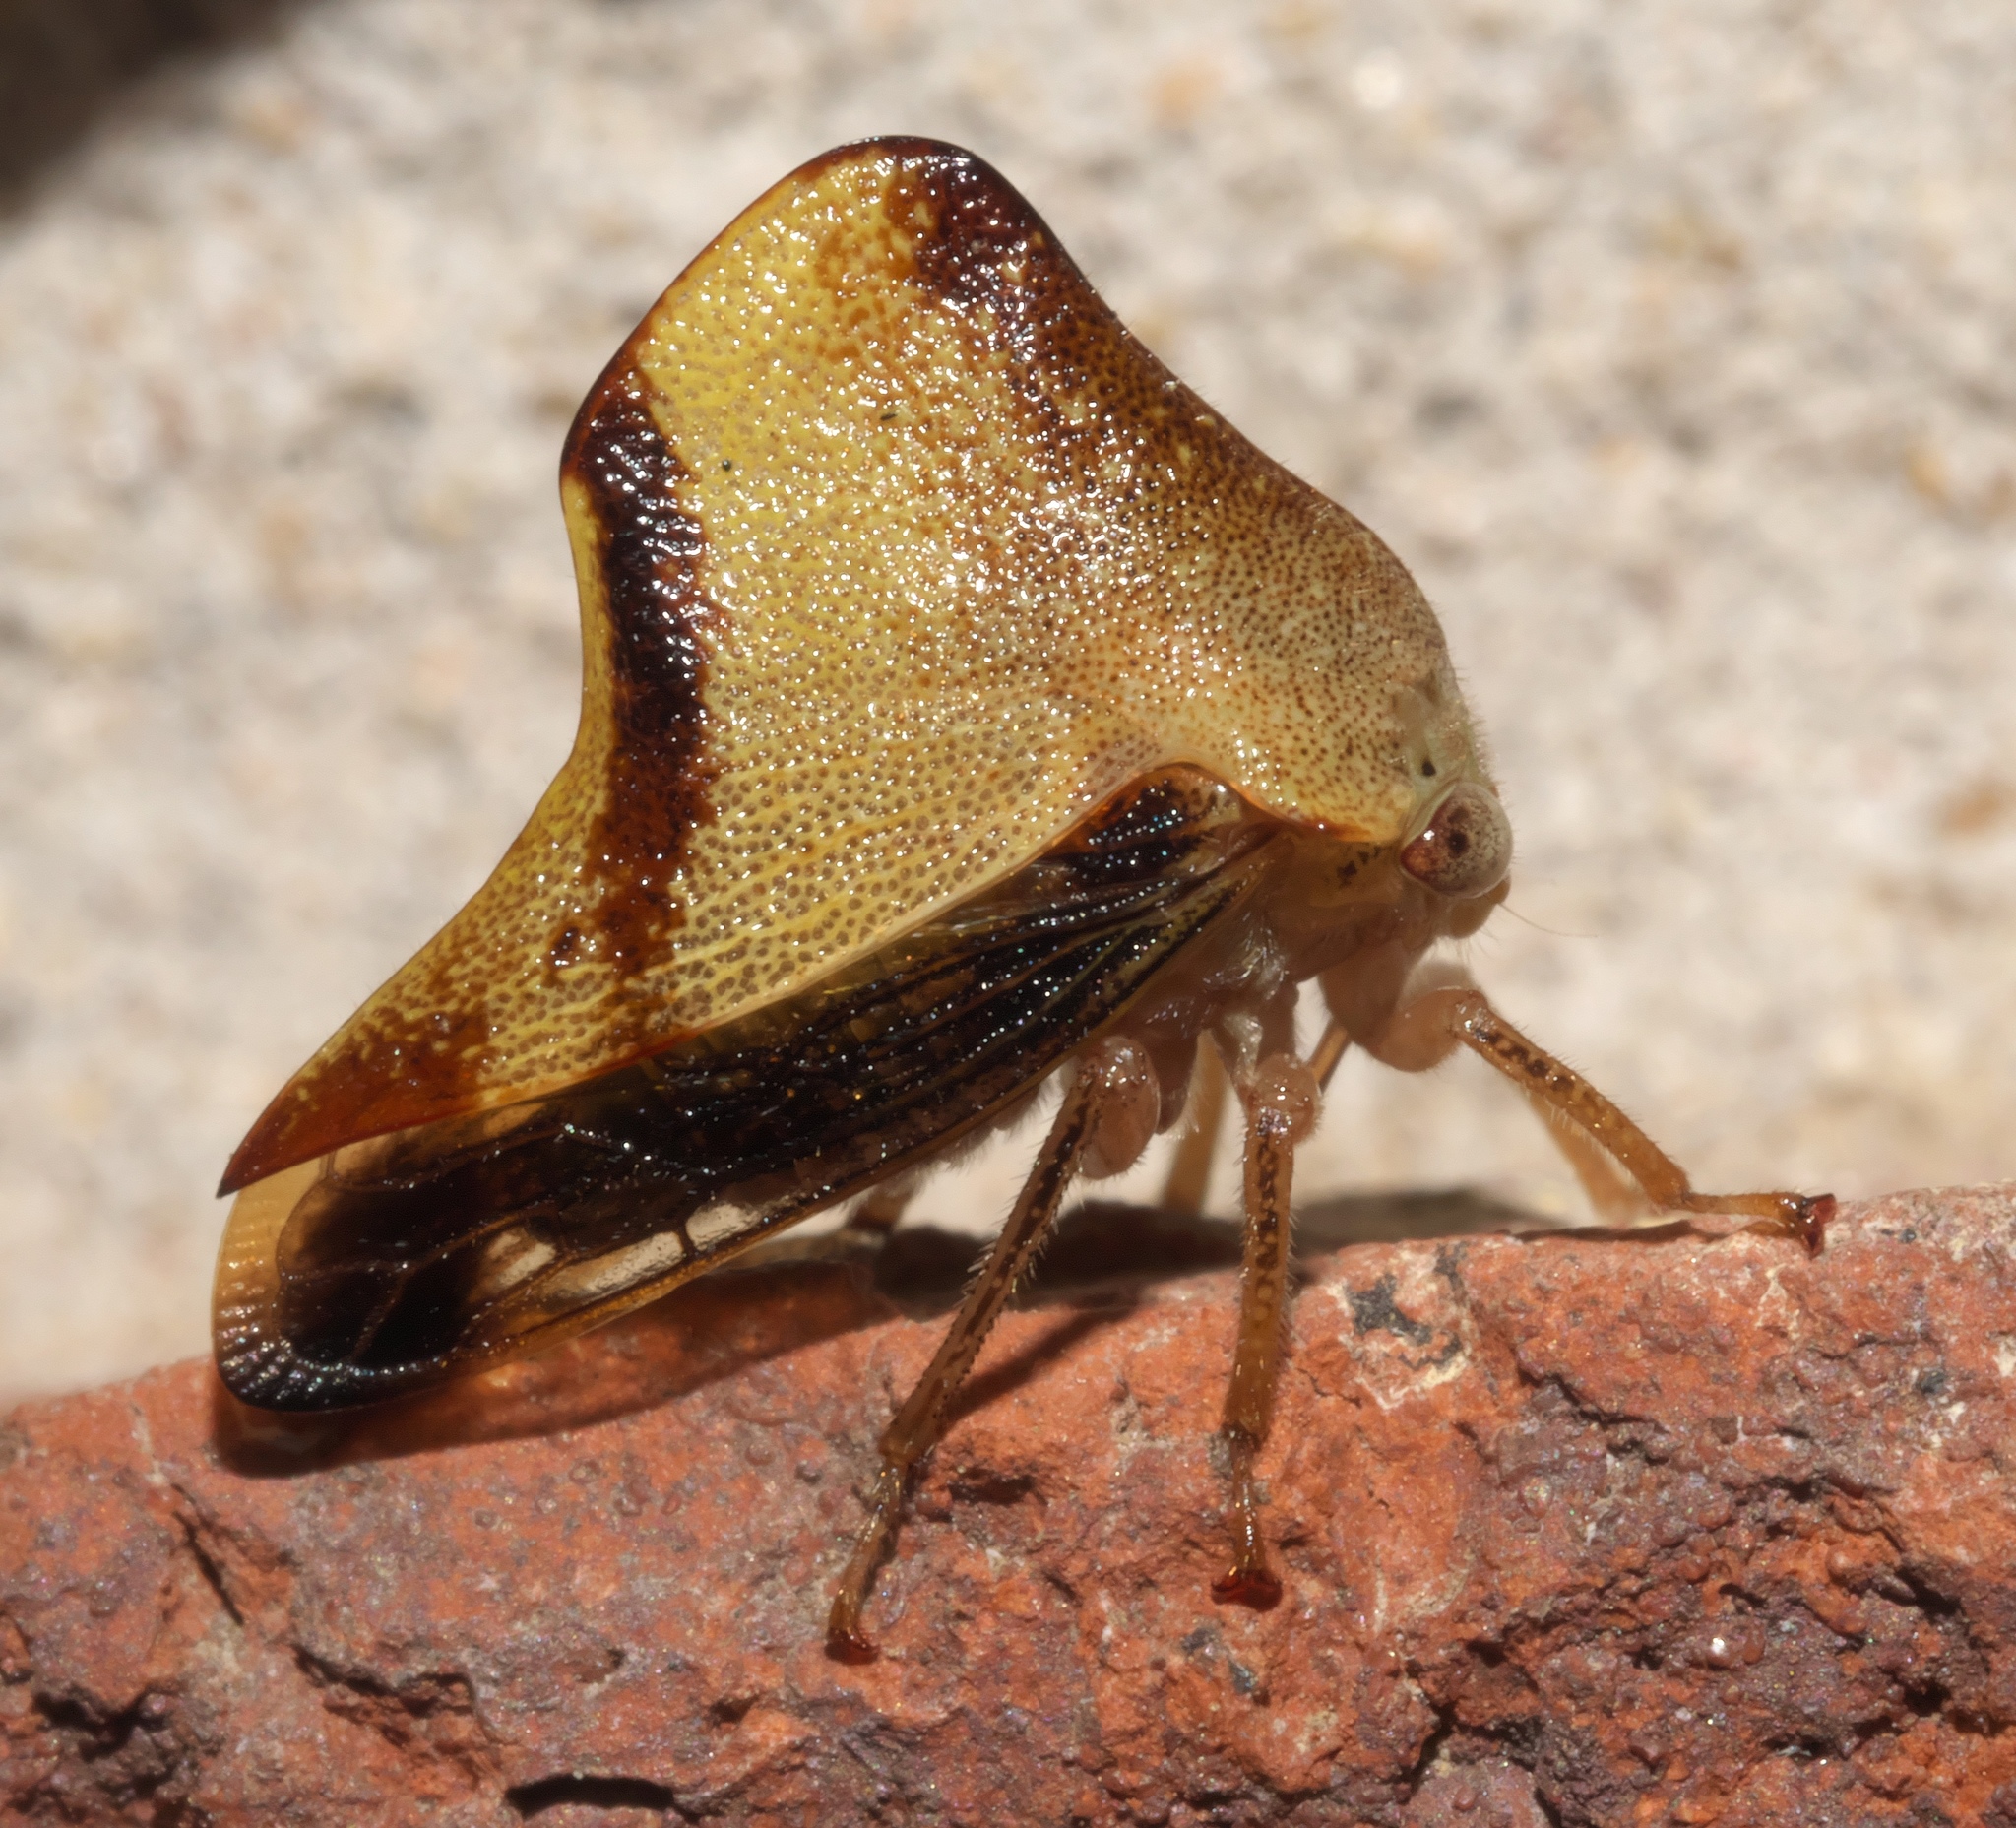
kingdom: Animalia
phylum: Arthropoda
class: Insecta
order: Hemiptera
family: Membracidae
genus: Helonica
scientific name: Helonica excelsa
